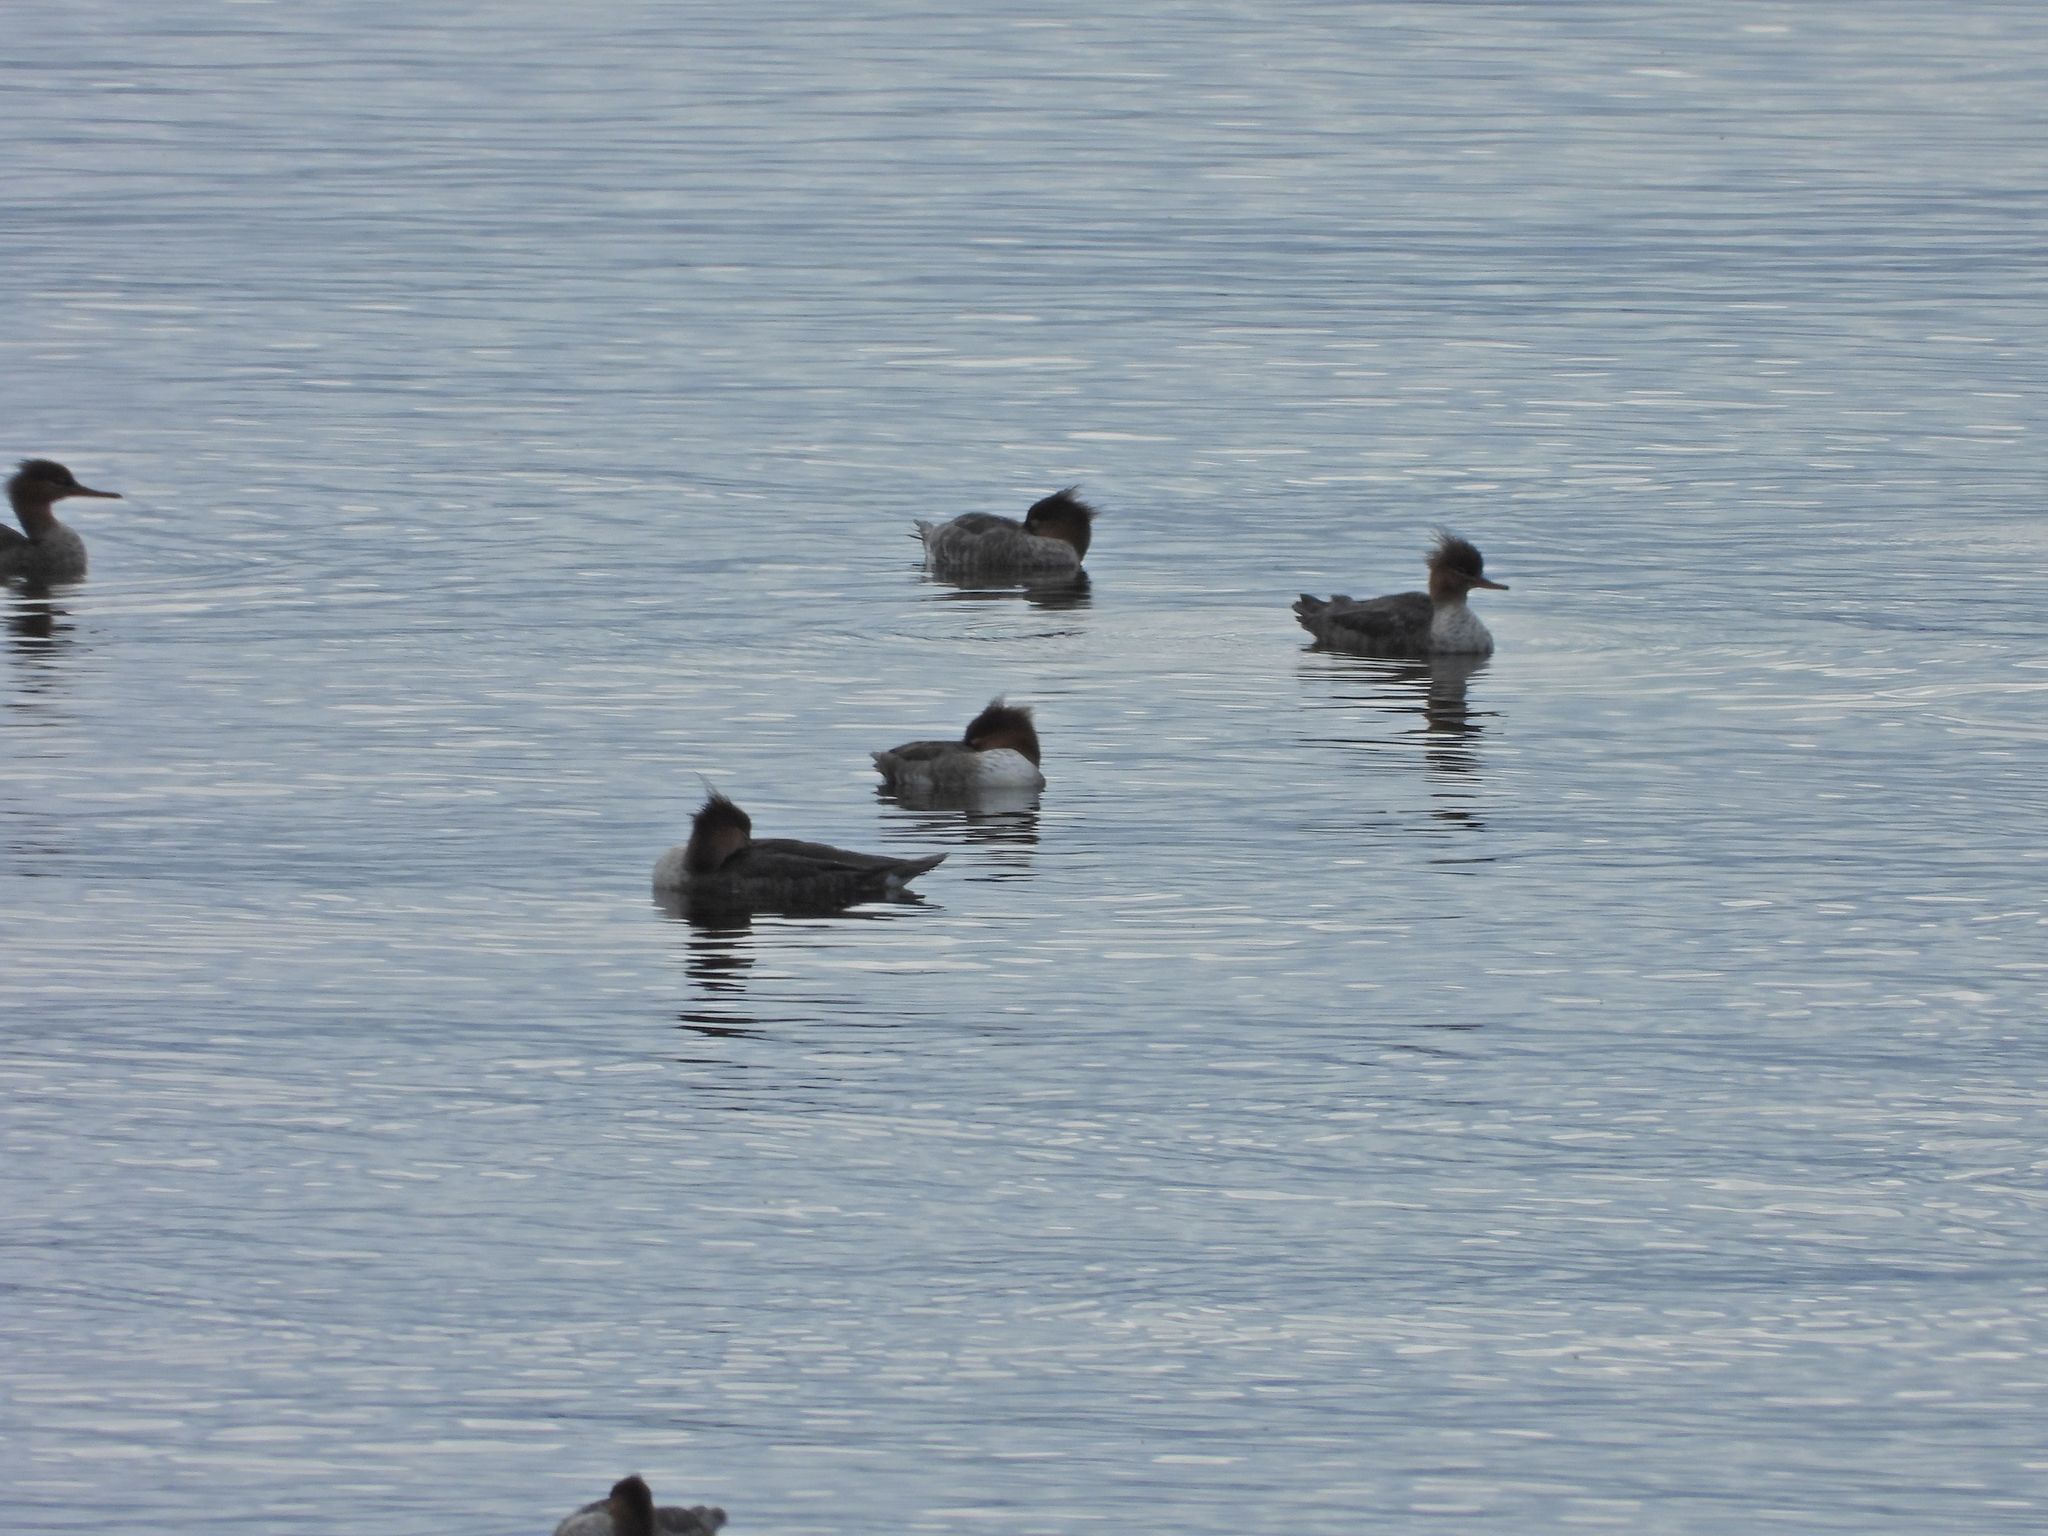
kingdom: Animalia
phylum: Chordata
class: Aves
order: Anseriformes
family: Anatidae
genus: Mergus
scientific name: Mergus serrator
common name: Red-breasted merganser
